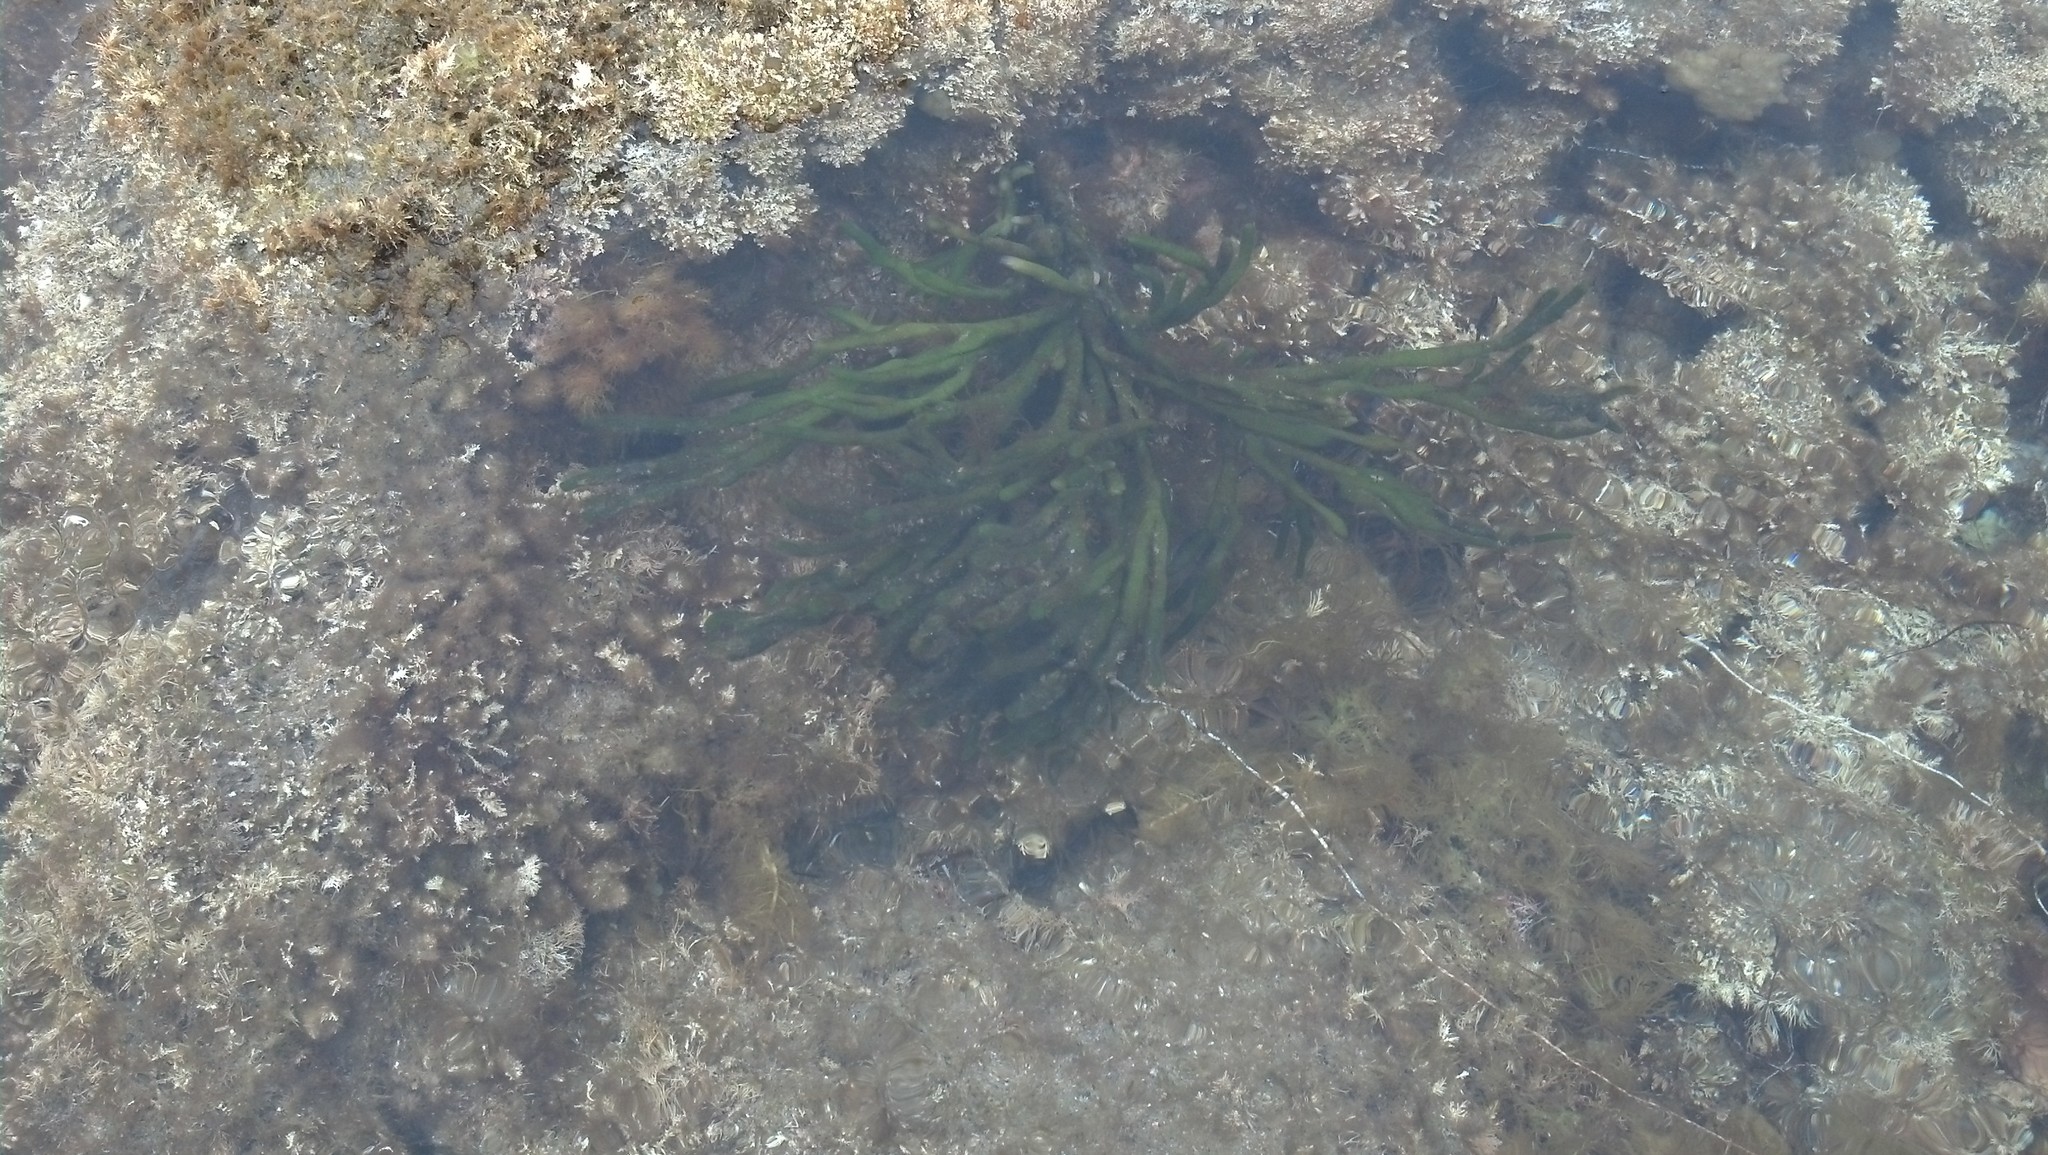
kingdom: Plantae
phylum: Chlorophyta
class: Ulvophyceae
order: Bryopsidales
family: Codiaceae
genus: Codium
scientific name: Codium fragile
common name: Dead man's fingers
